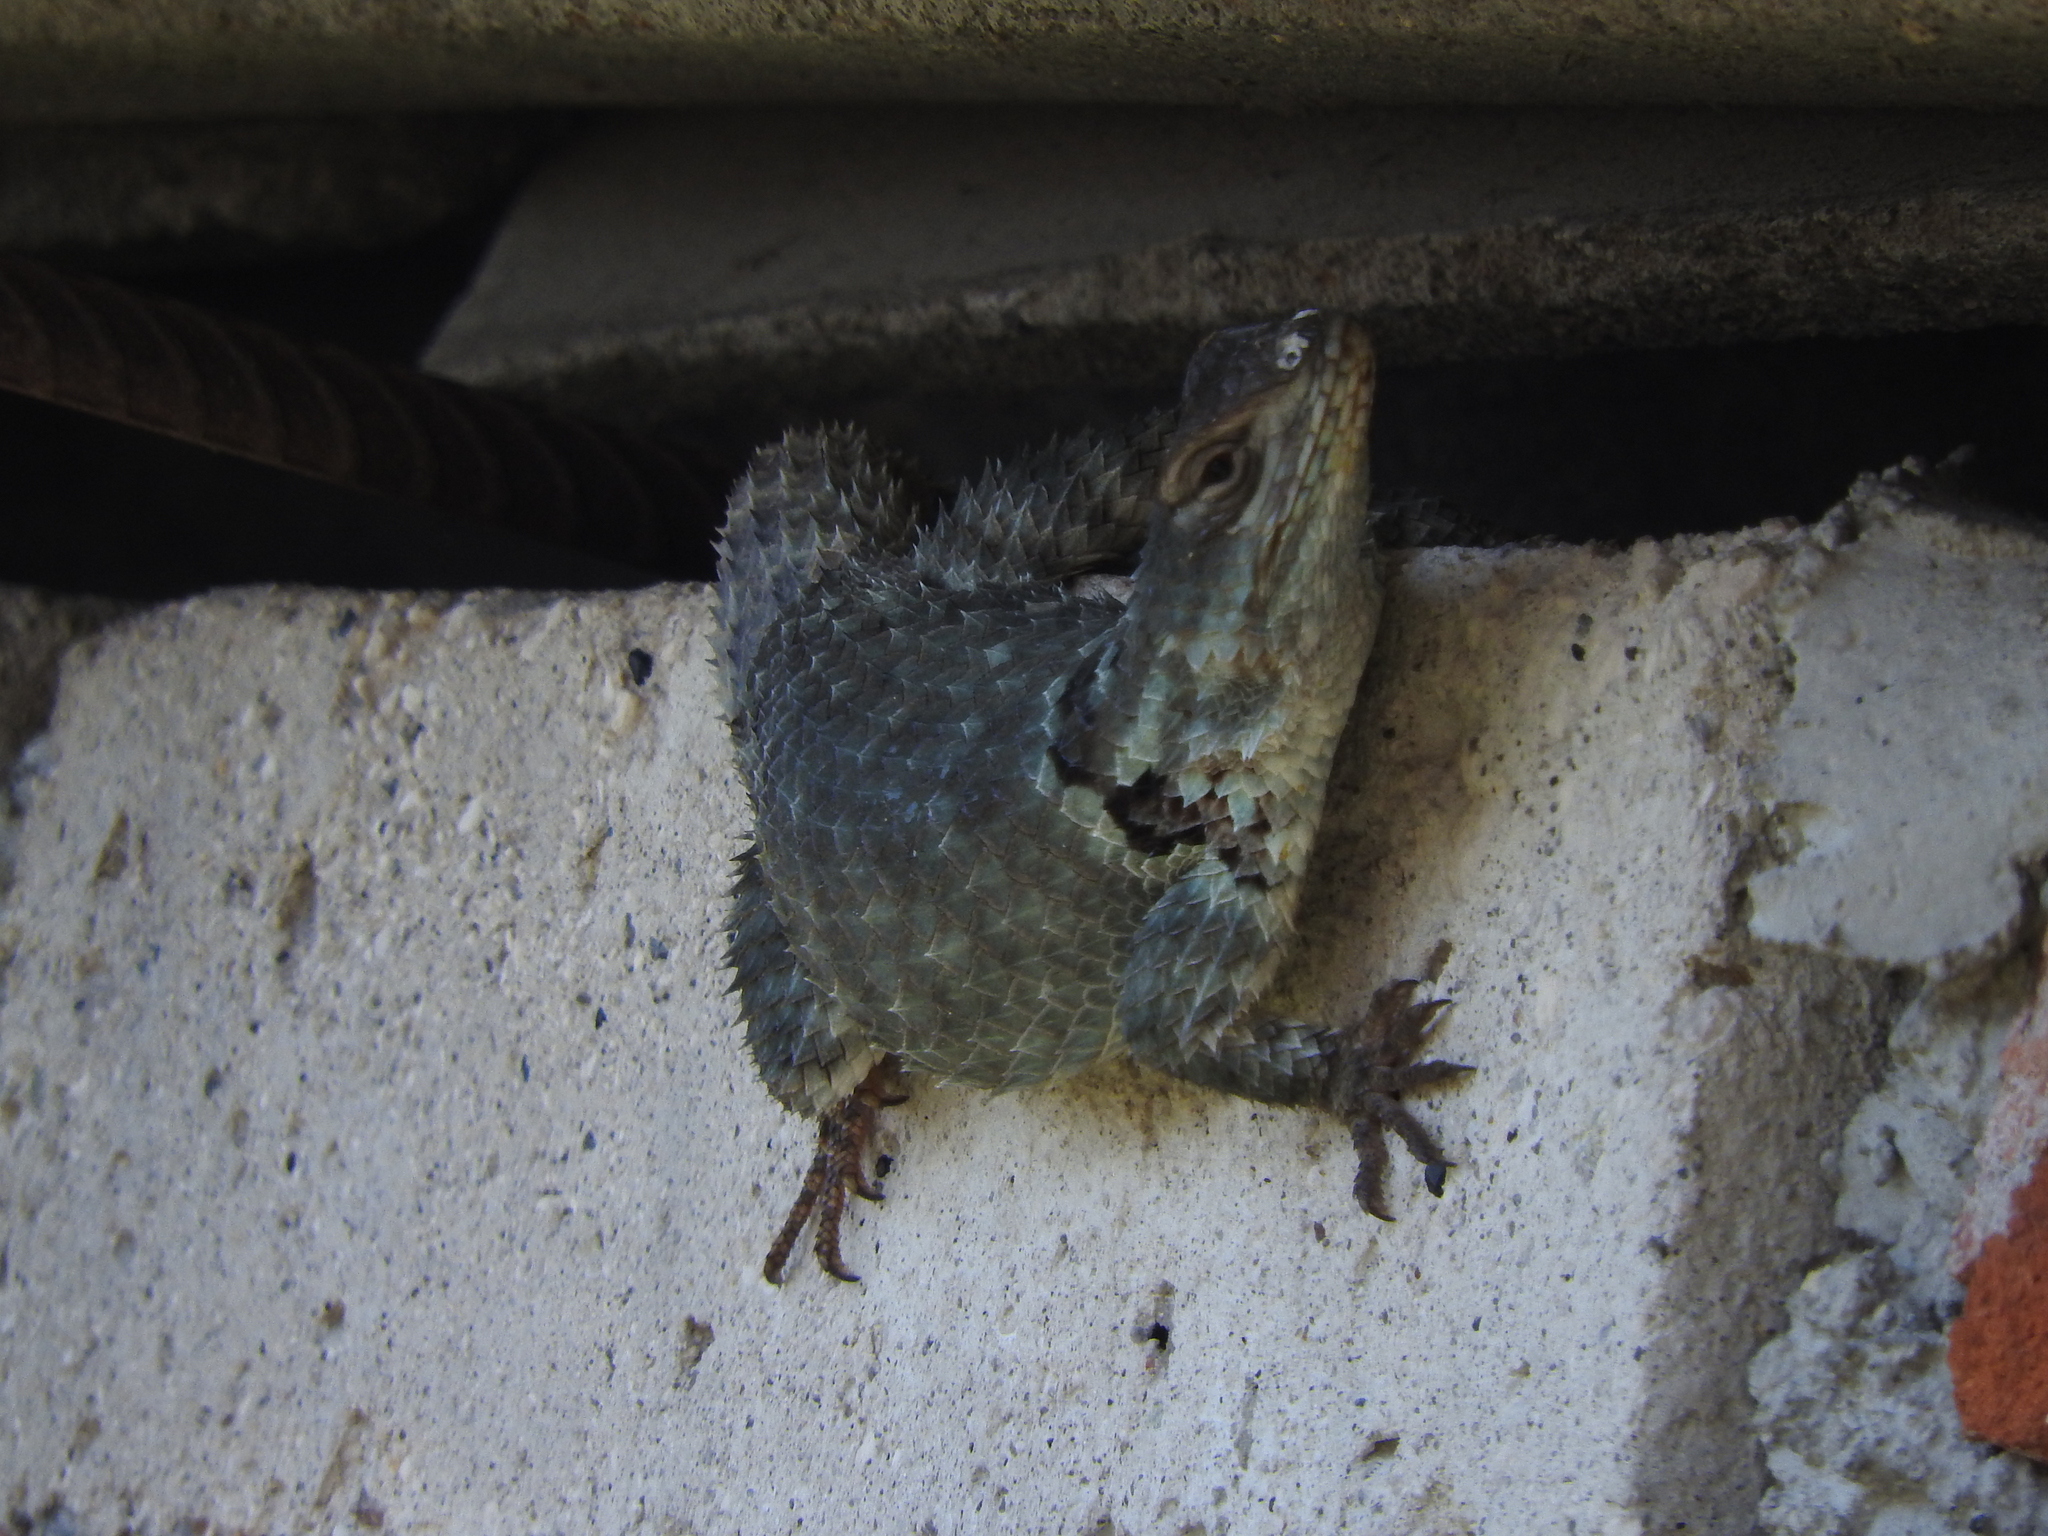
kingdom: Animalia
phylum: Chordata
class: Squamata
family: Phrynosomatidae
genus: Sceloporus
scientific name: Sceloporus torquatus
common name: Central plateau torquate lizard [melanogaster]
